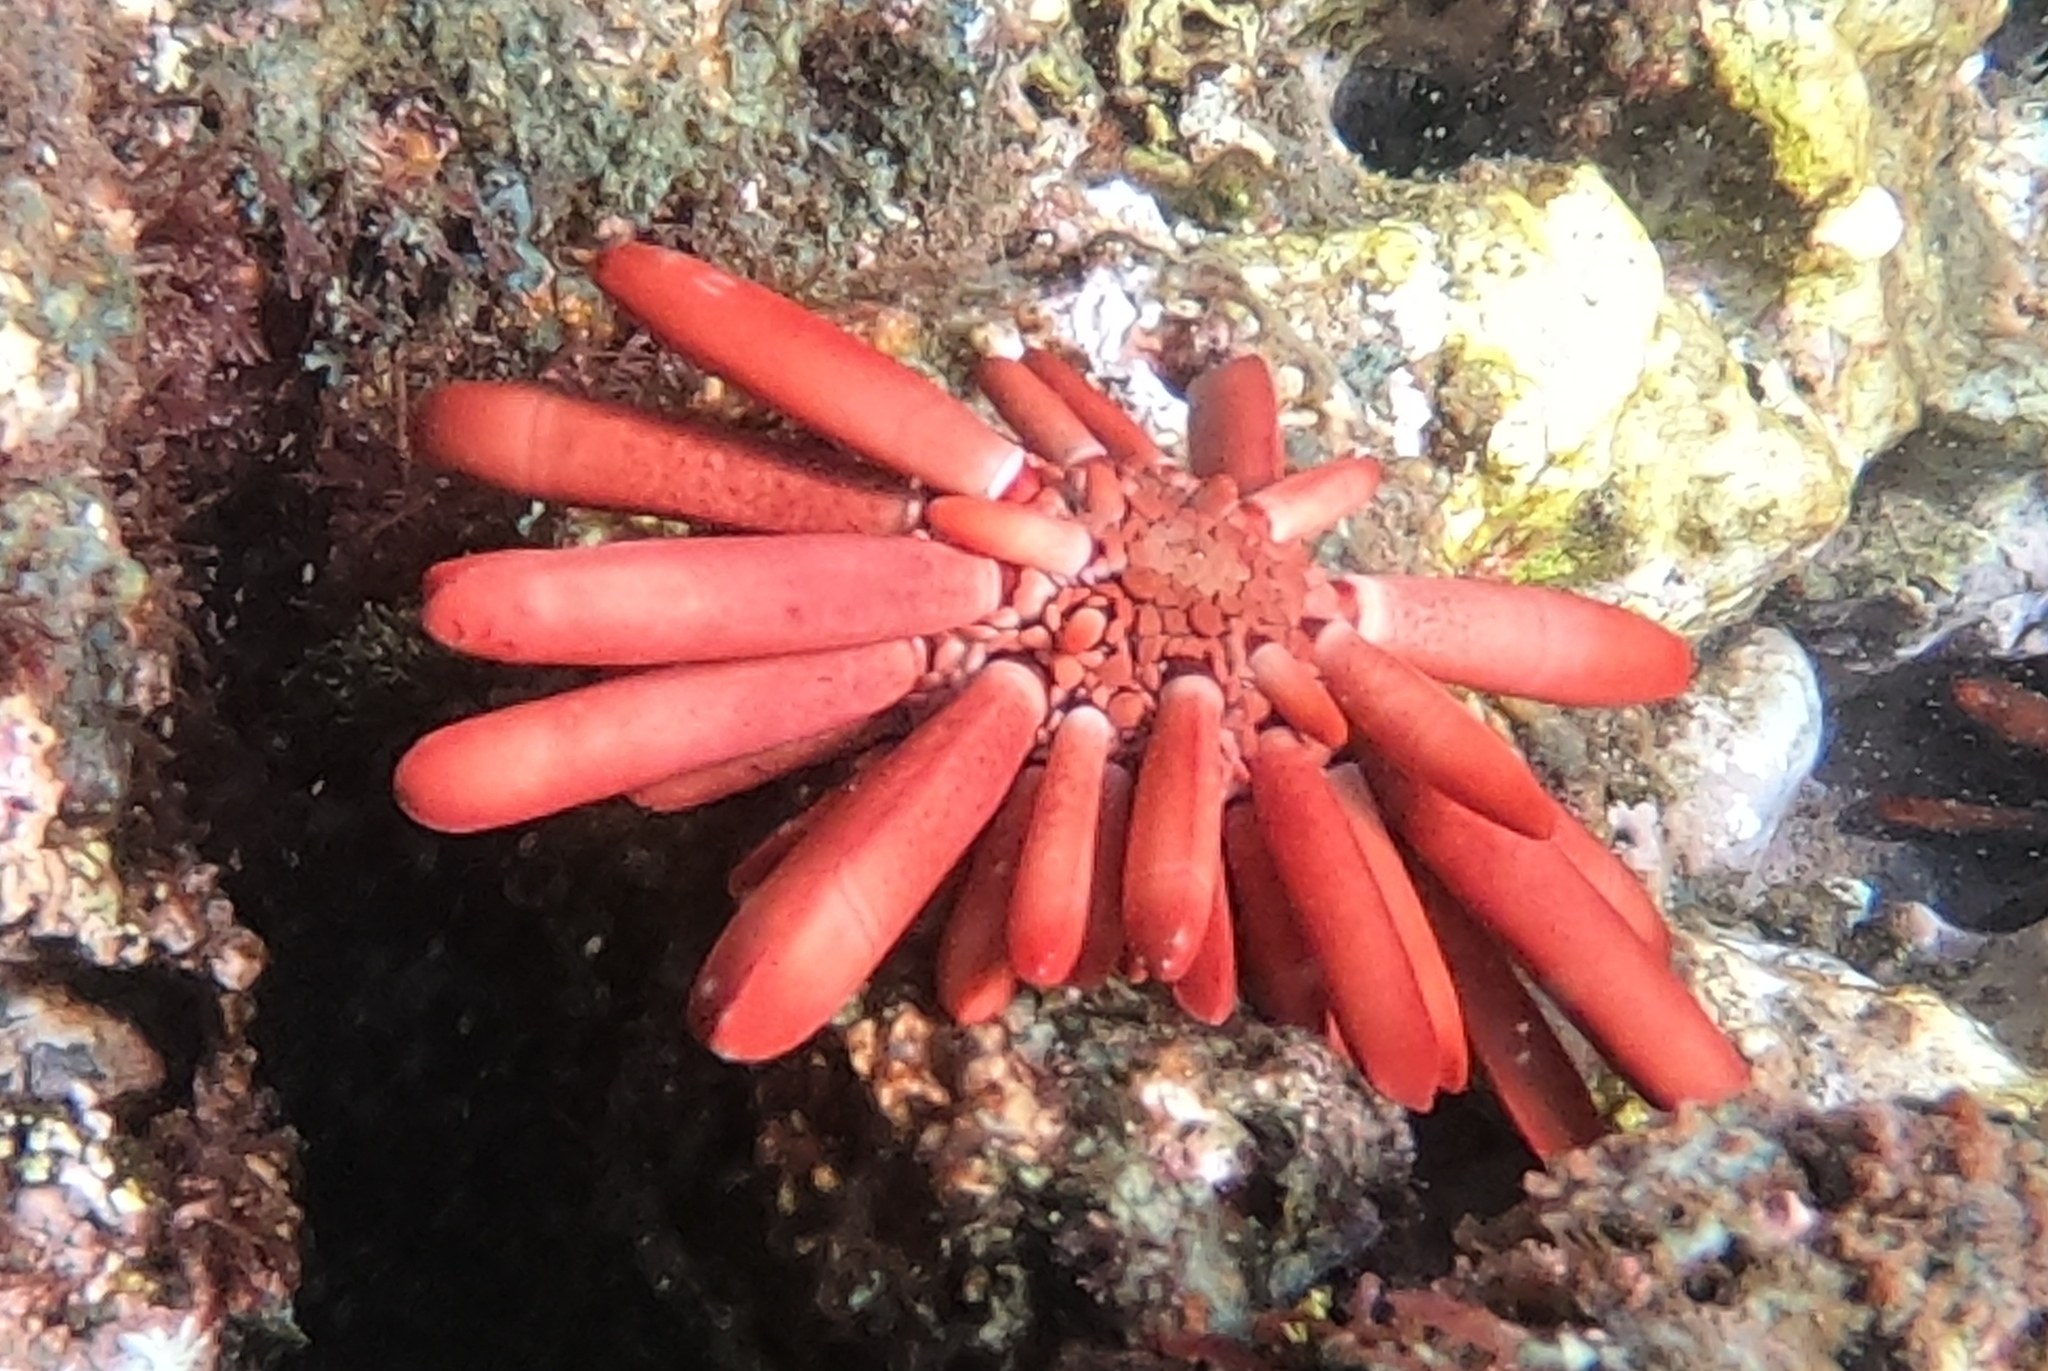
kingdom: Animalia
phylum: Echinodermata
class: Echinoidea
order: Camarodonta
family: Echinometridae
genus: Heterocentrotus
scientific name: Heterocentrotus mamillatus
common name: Slate pencil urchin
